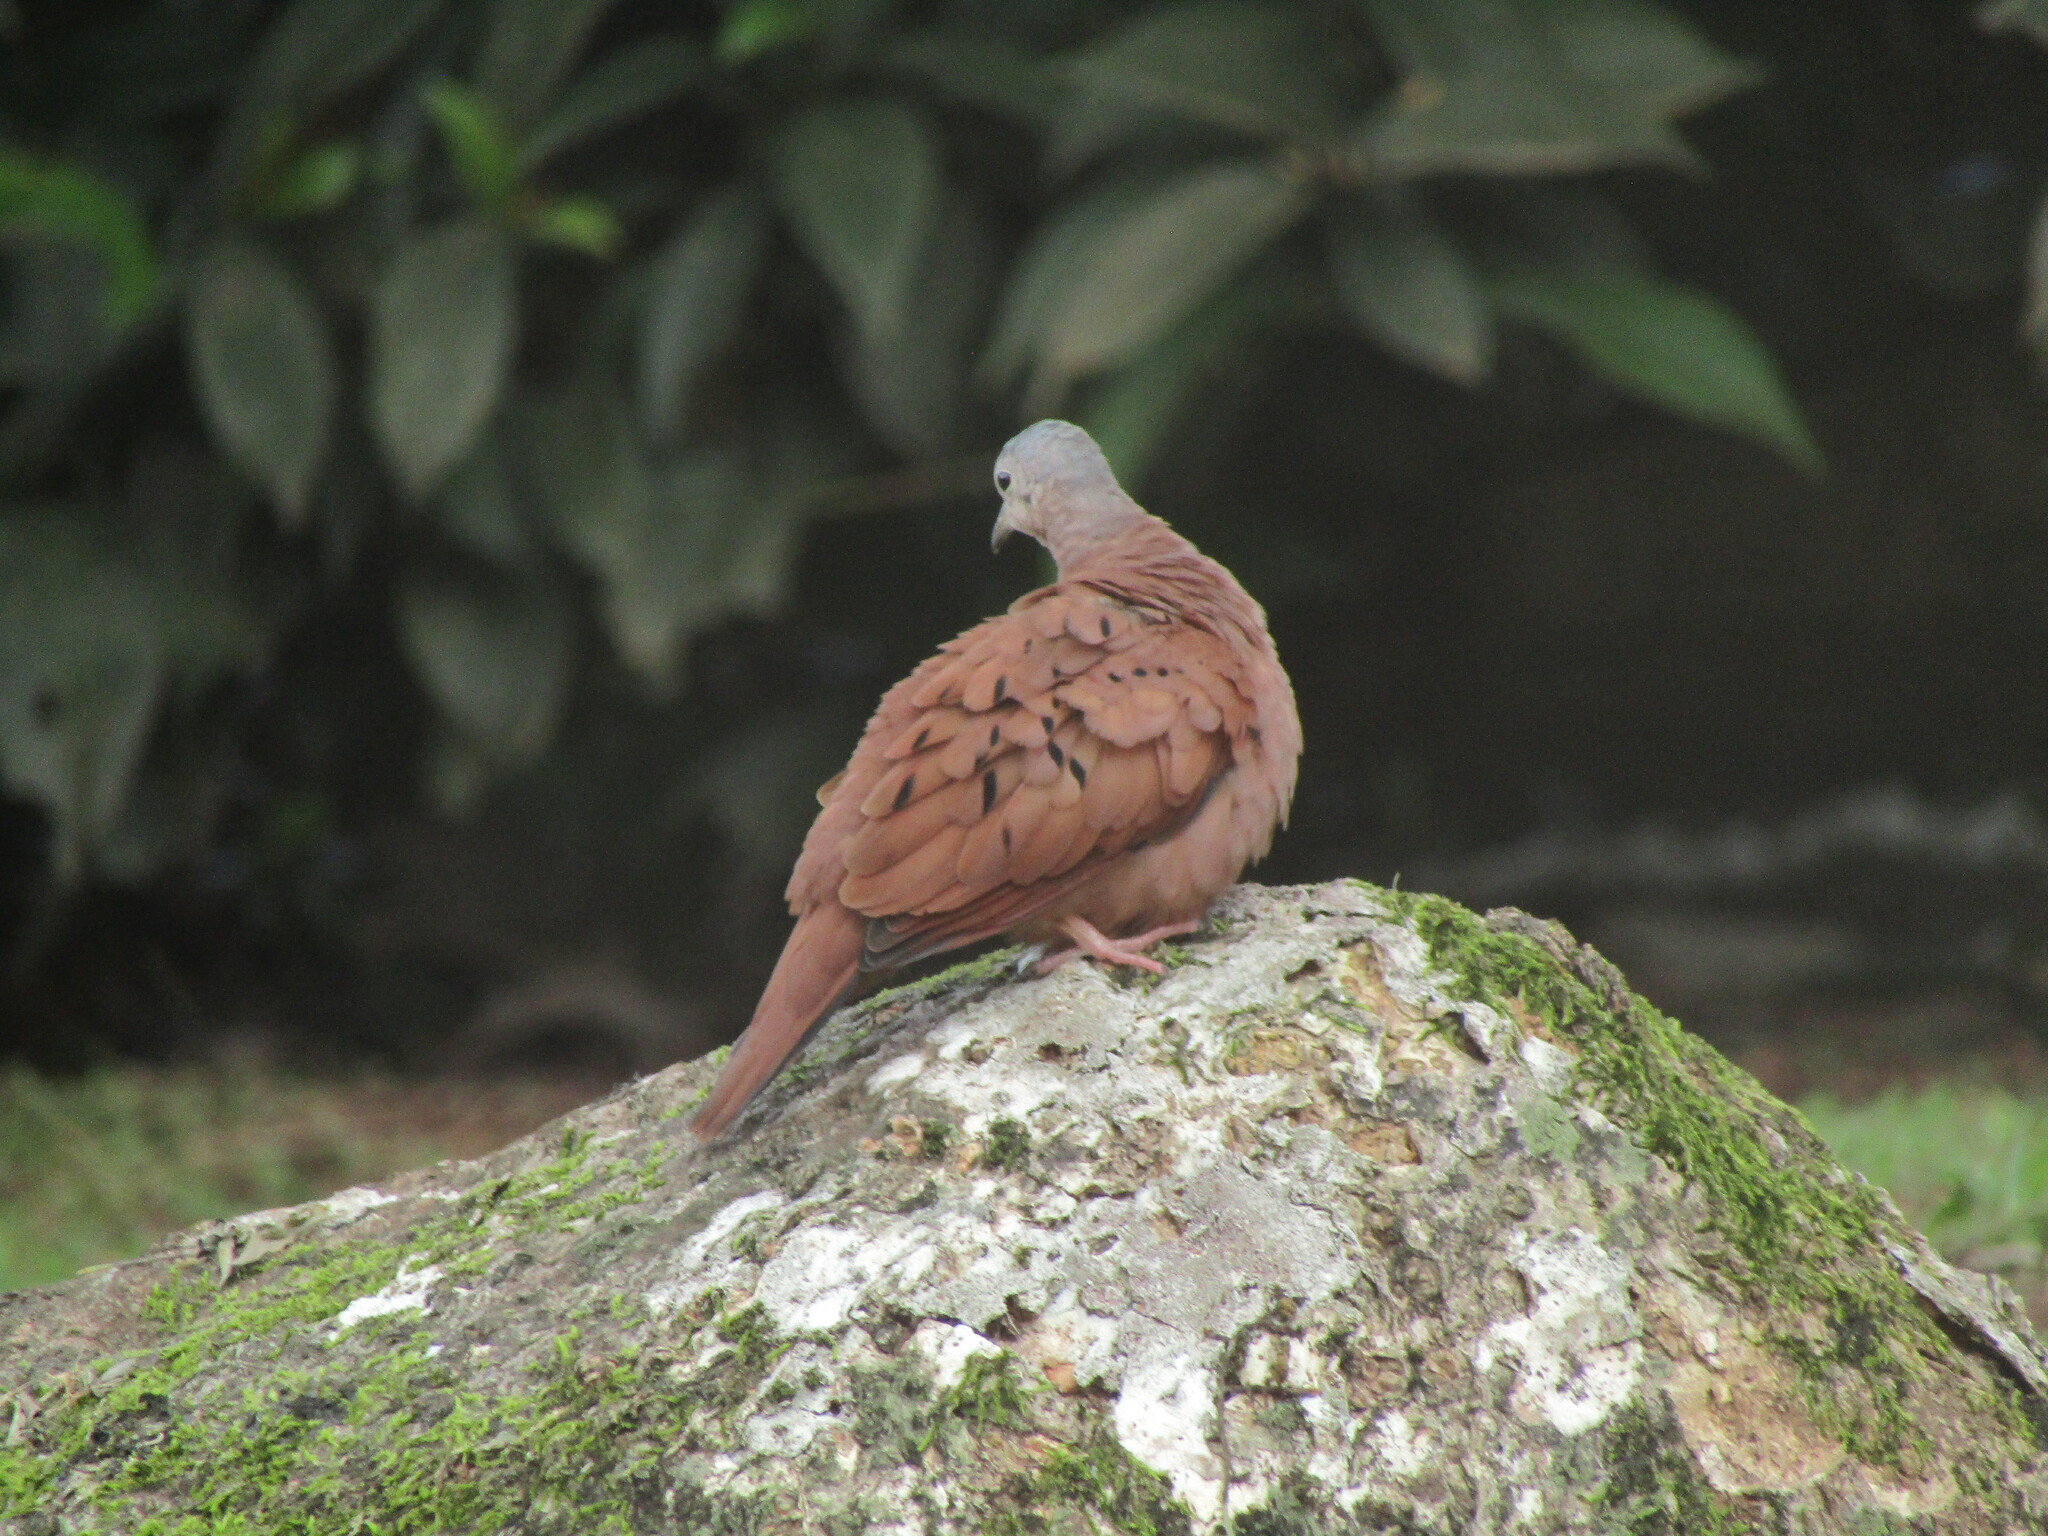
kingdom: Animalia
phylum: Chordata
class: Aves
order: Columbiformes
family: Columbidae
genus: Columbina
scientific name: Columbina talpacoti
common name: Ruddy ground dove
